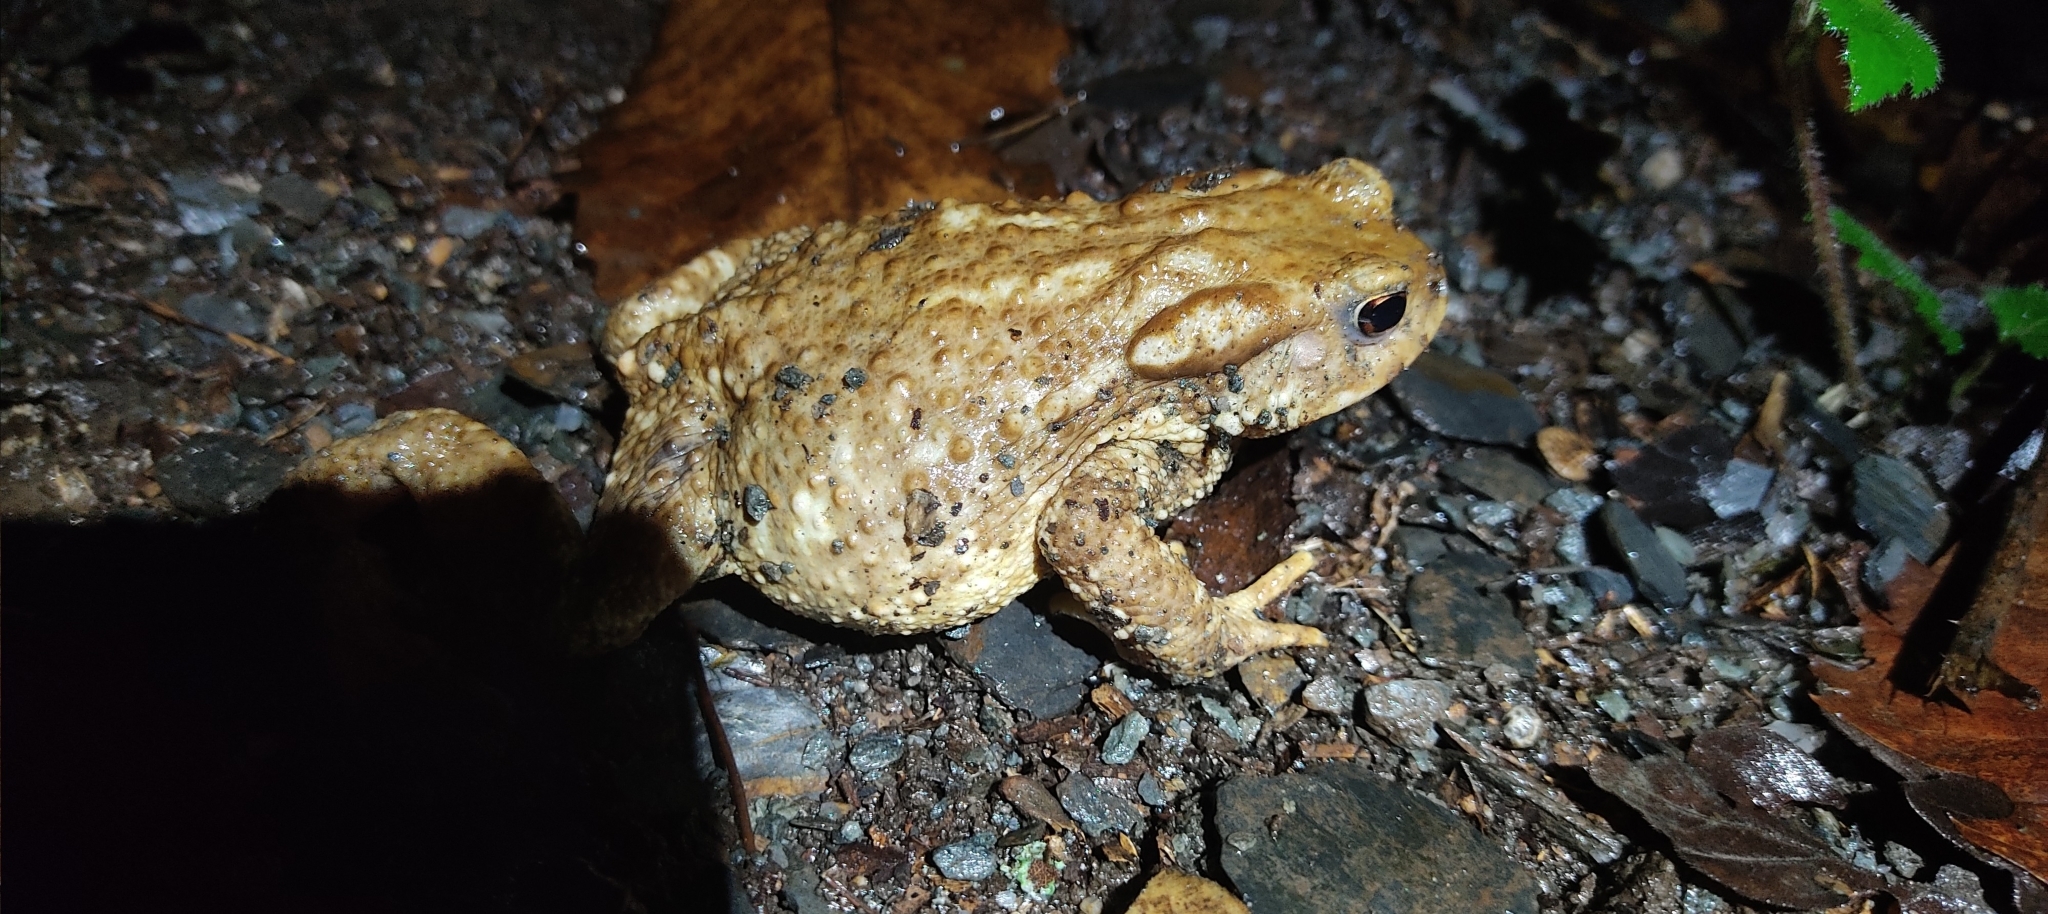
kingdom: Animalia
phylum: Chordata
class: Amphibia
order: Anura
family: Bufonidae
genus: Bufo
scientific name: Bufo spinosus
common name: Western common toad
